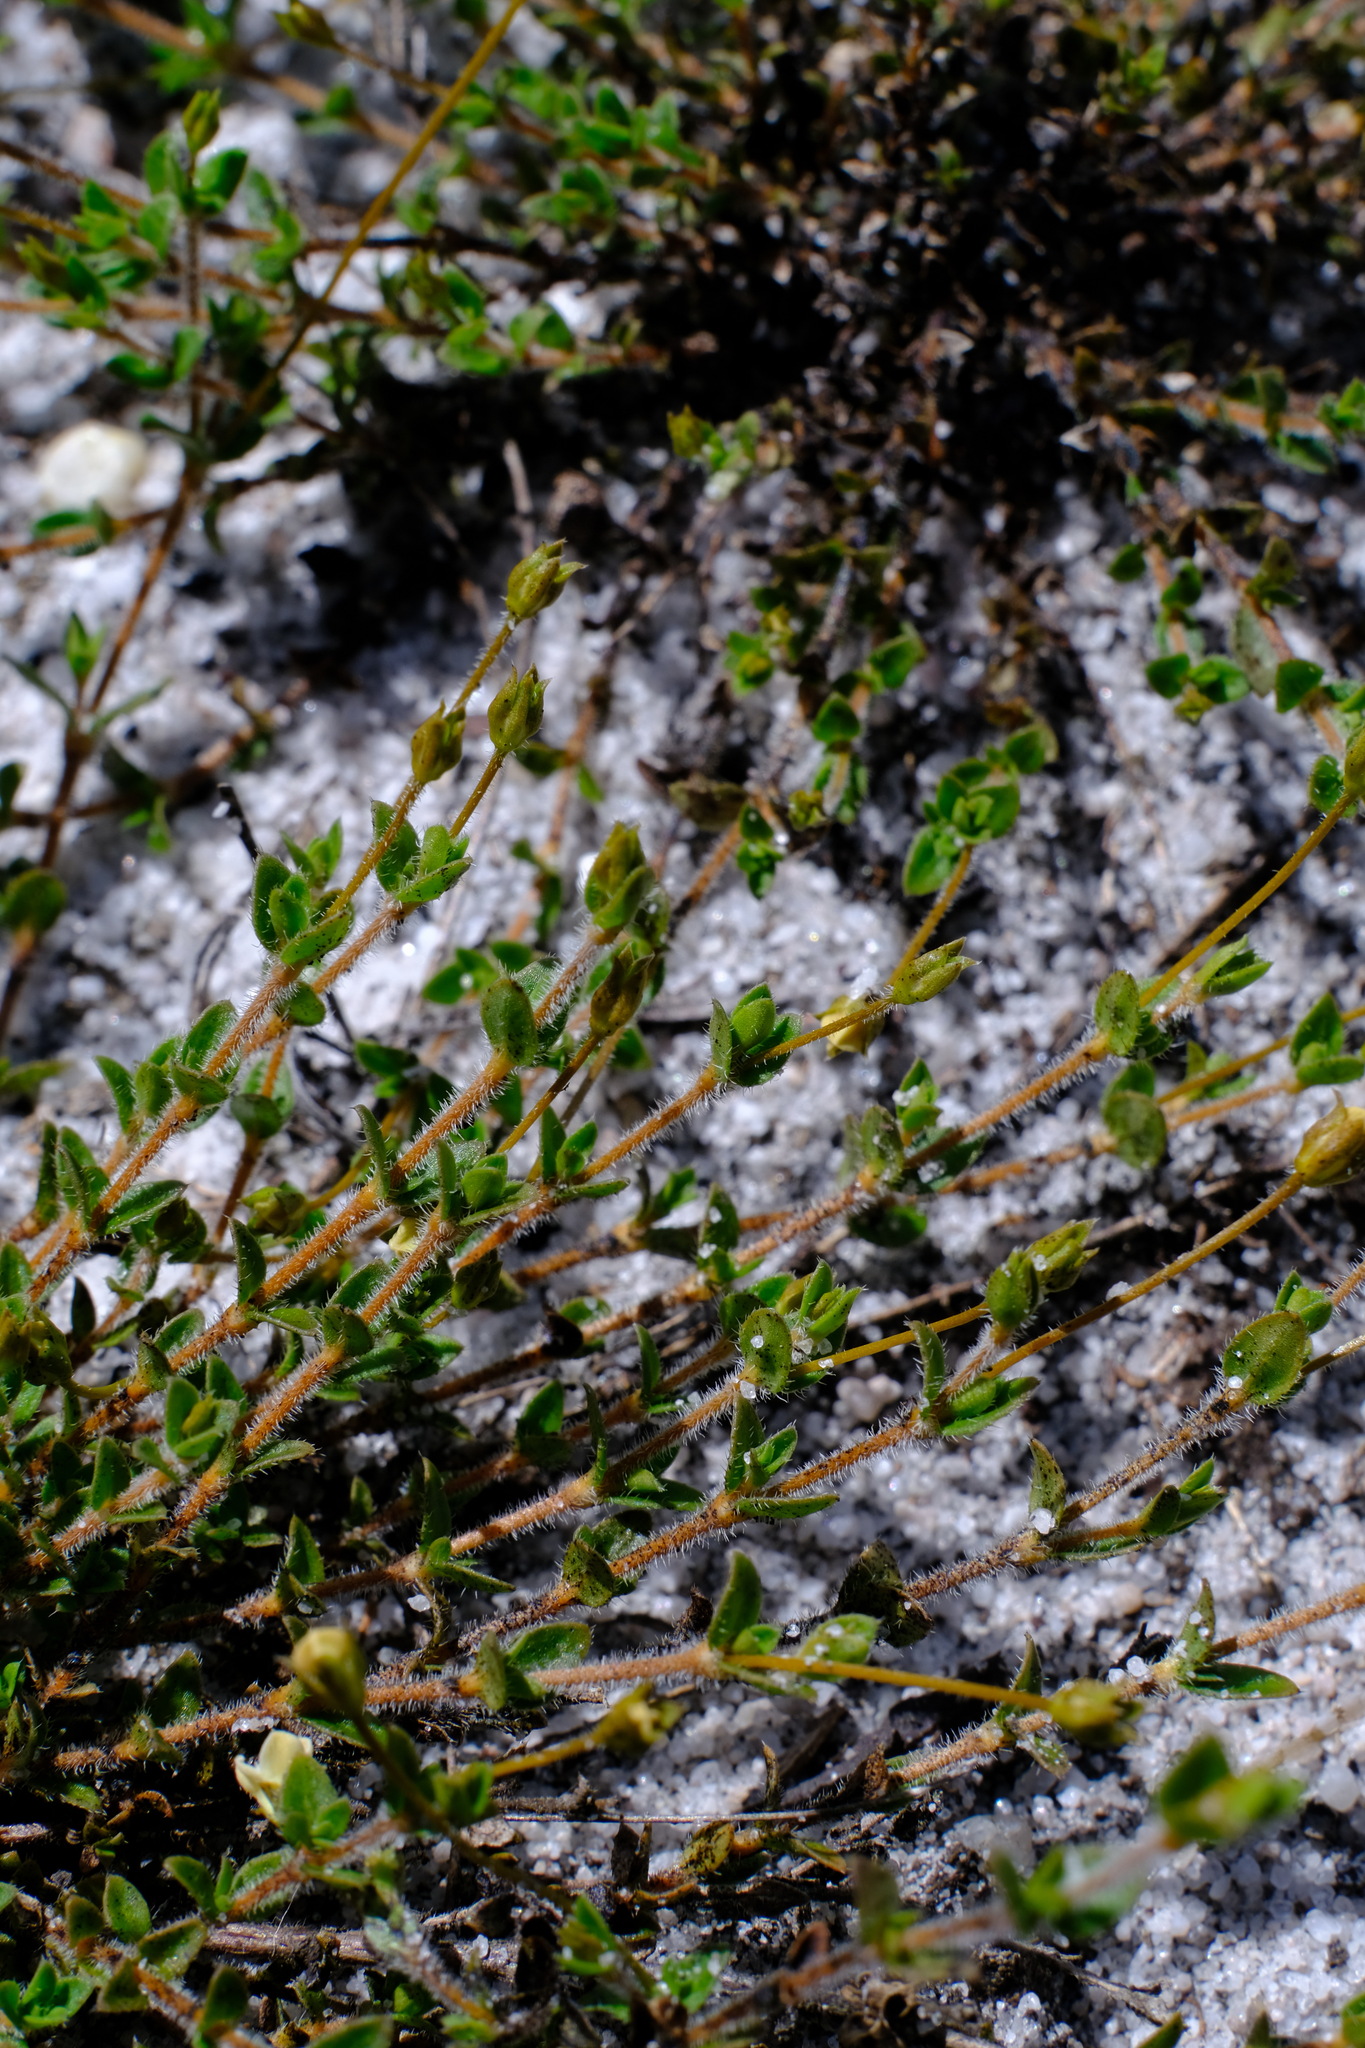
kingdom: Plantae
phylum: Tracheophyta
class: Magnoliopsida
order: Gentianales
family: Loganiaceae
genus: Mitrasacme
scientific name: Mitrasacme pilosa
